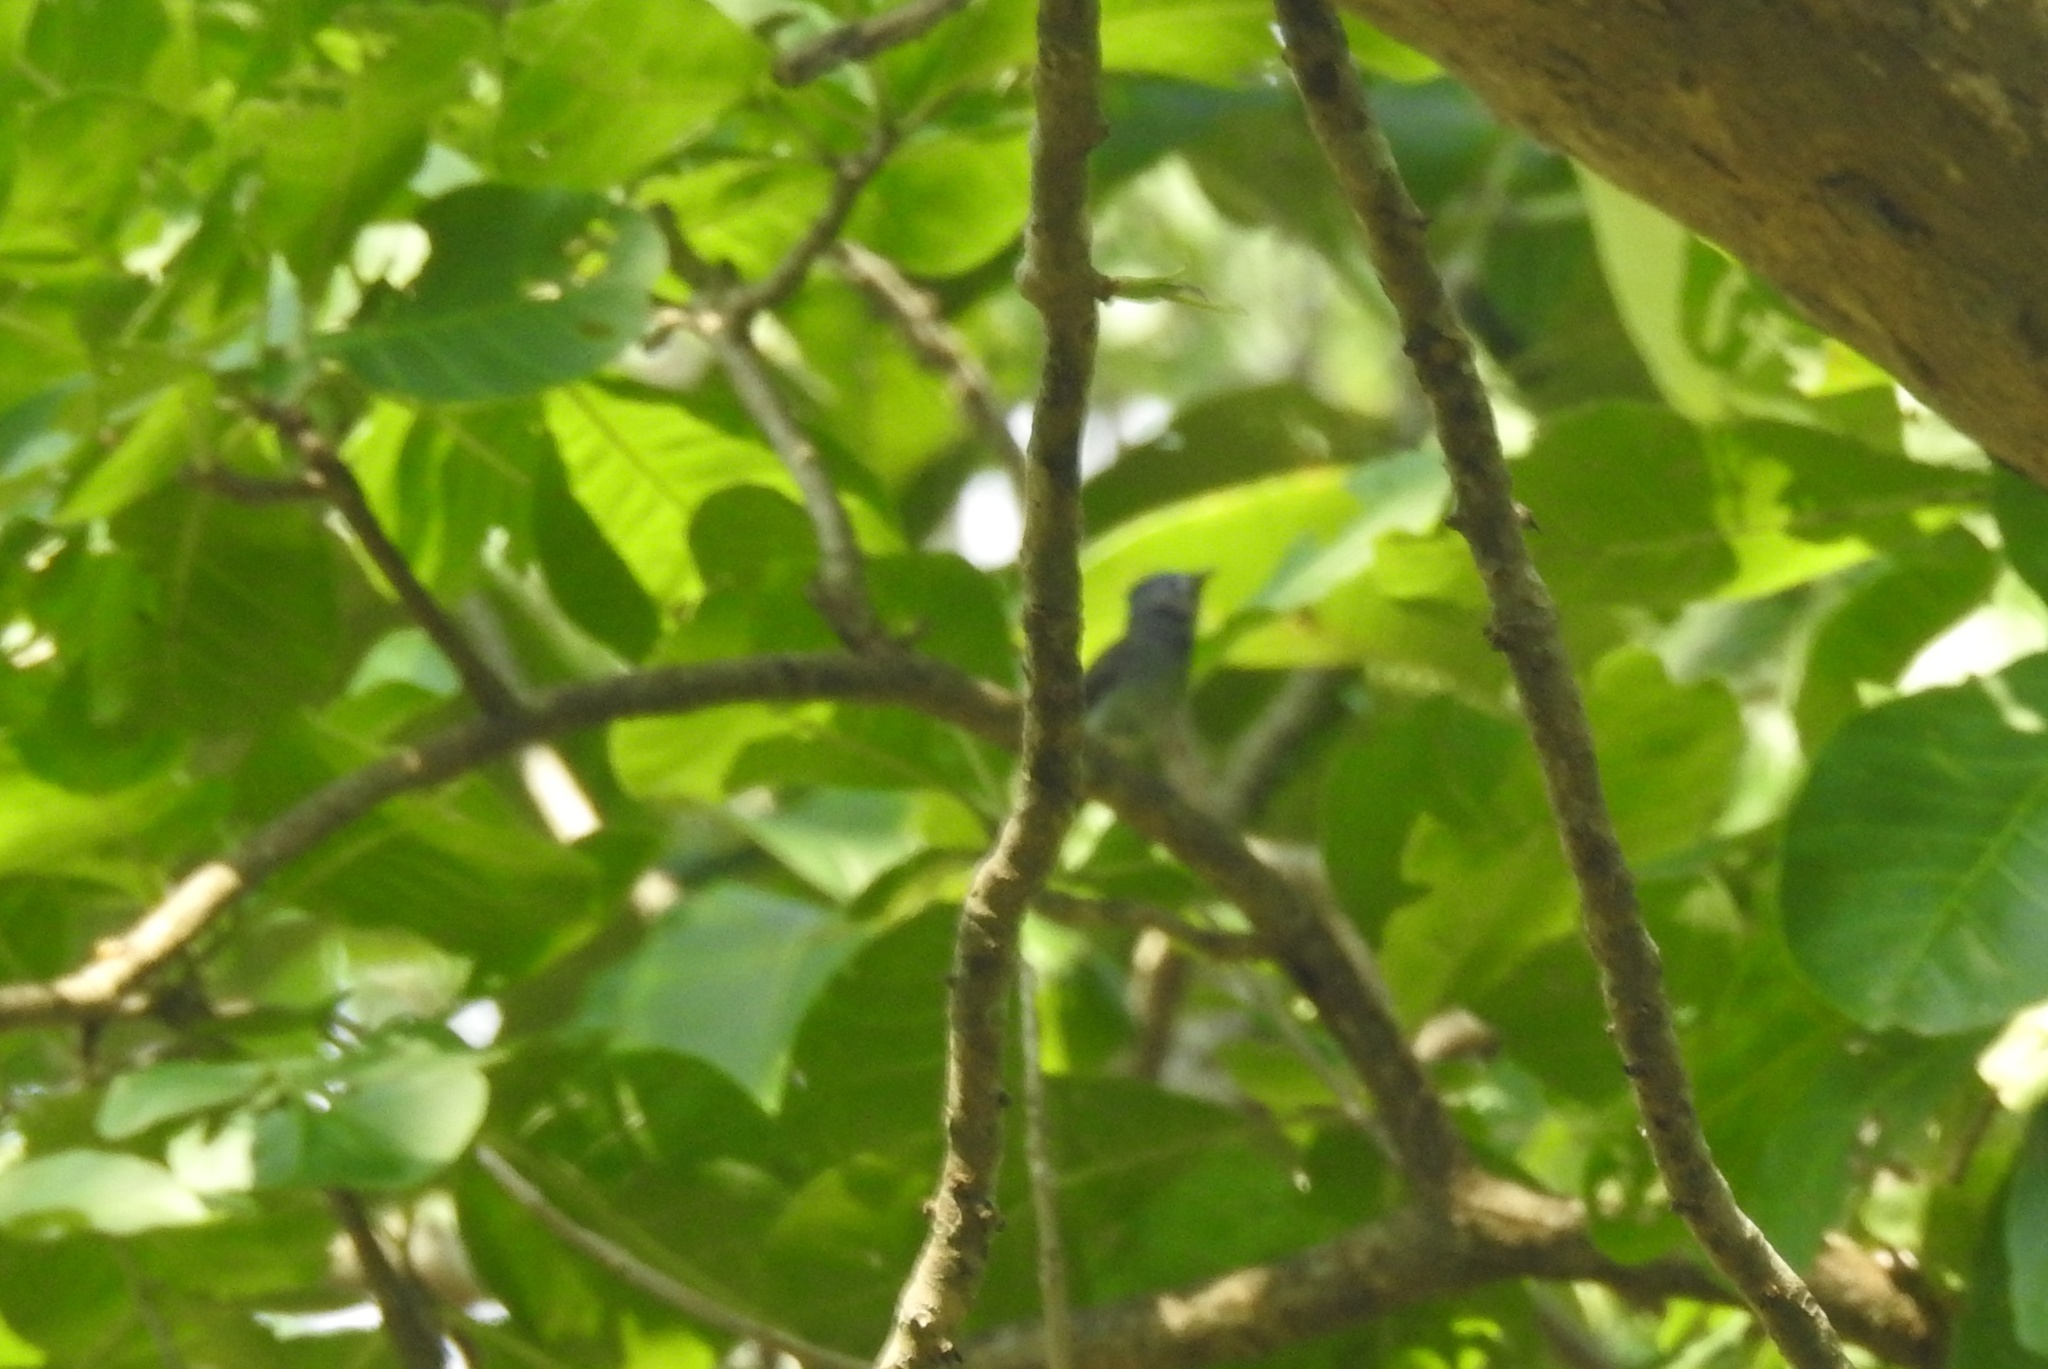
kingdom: Animalia
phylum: Chordata
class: Aves
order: Passeriformes
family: Monarchidae
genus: Hypothymis
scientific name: Hypothymis azurea
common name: Black-naped monarch
